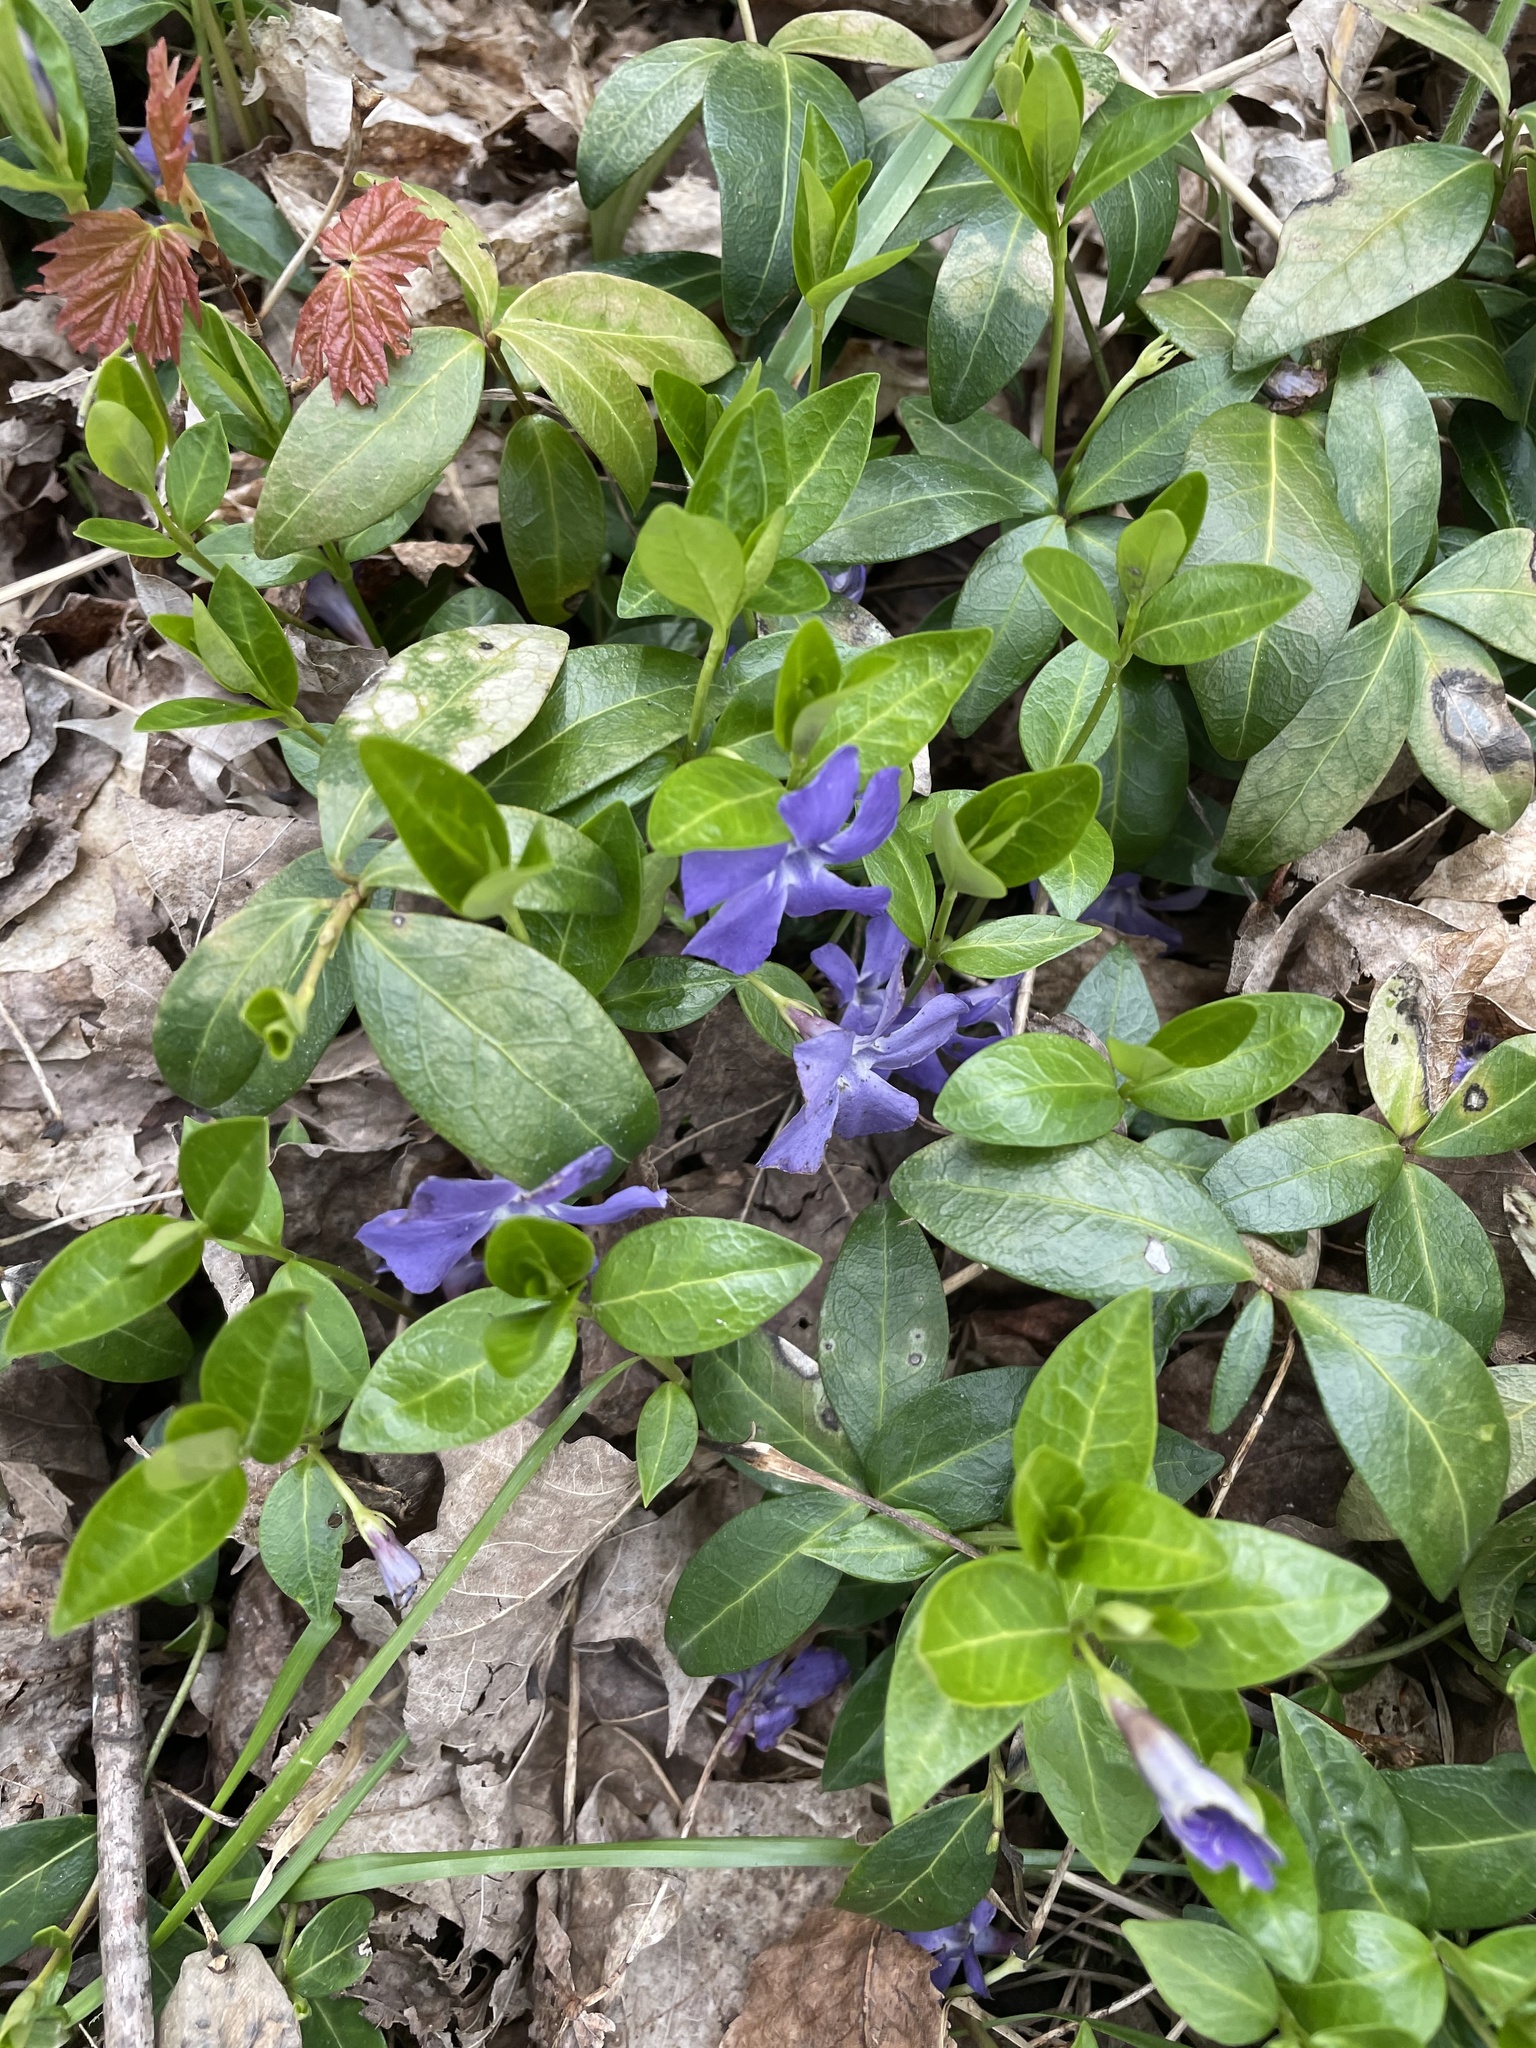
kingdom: Plantae
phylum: Tracheophyta
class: Magnoliopsida
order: Gentianales
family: Apocynaceae
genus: Vinca
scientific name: Vinca minor
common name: Lesser periwinkle
